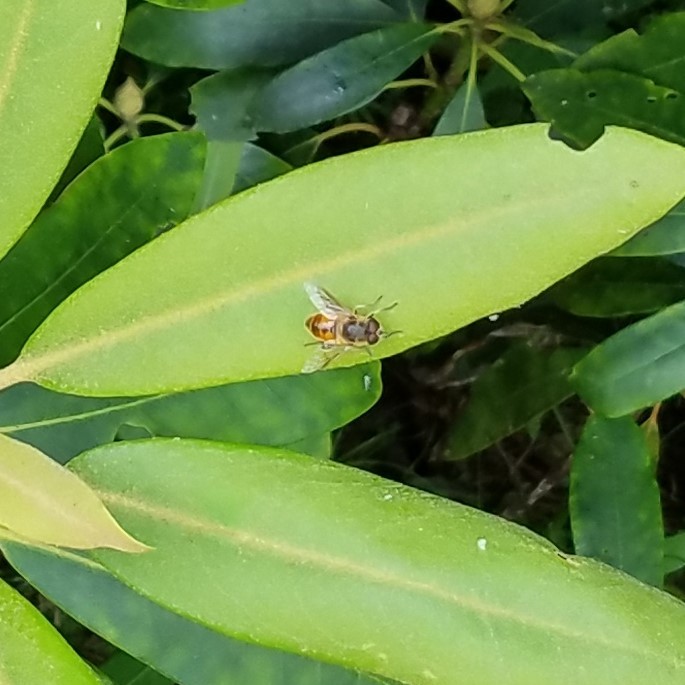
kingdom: Animalia
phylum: Arthropoda
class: Insecta
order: Diptera
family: Syrphidae
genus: Eristalis
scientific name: Eristalis tenax
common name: Drone fly
